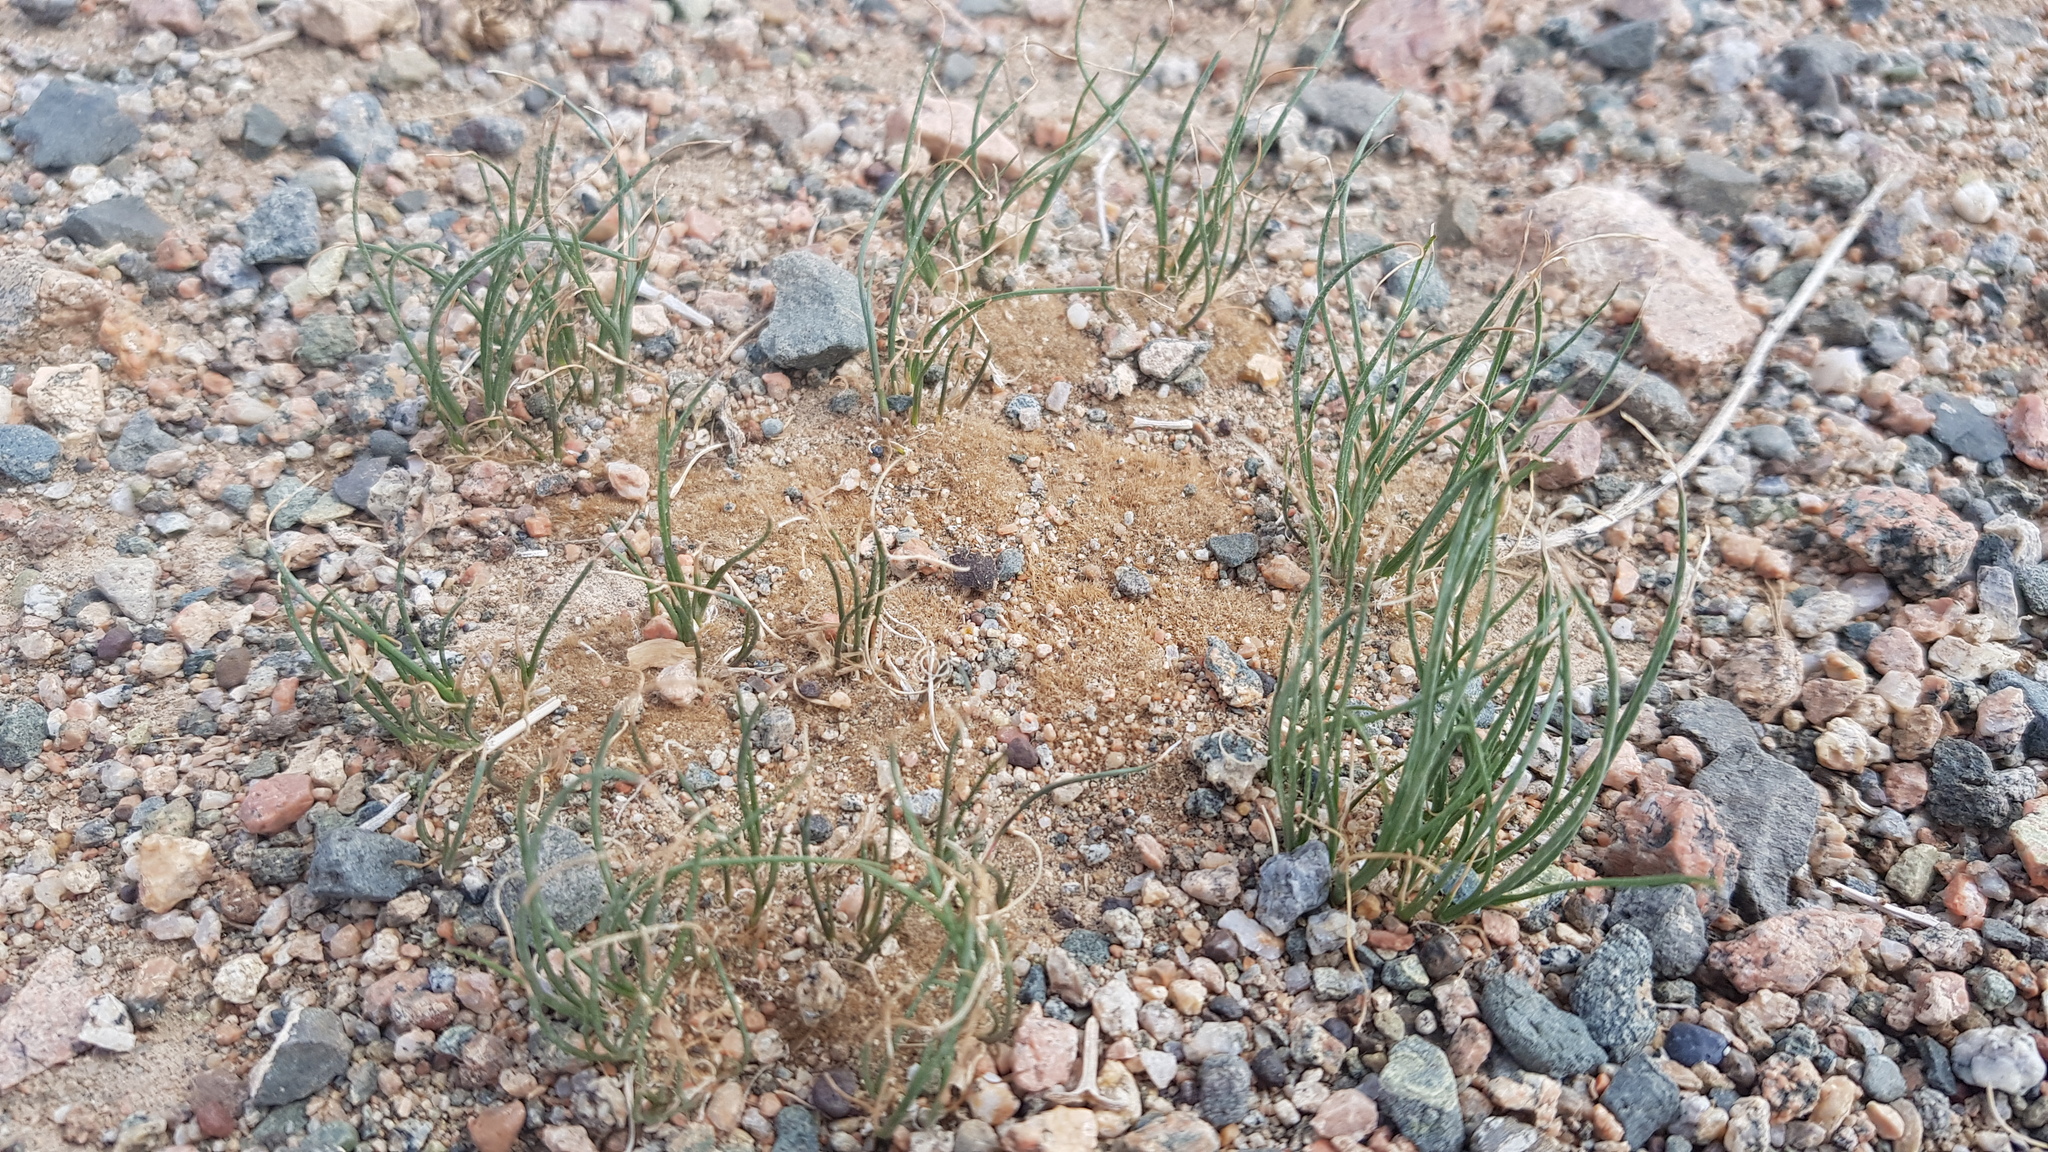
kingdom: Plantae
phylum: Tracheophyta
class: Liliopsida
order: Asparagales
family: Amaryllidaceae
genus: Allium
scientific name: Allium polyrhizum
